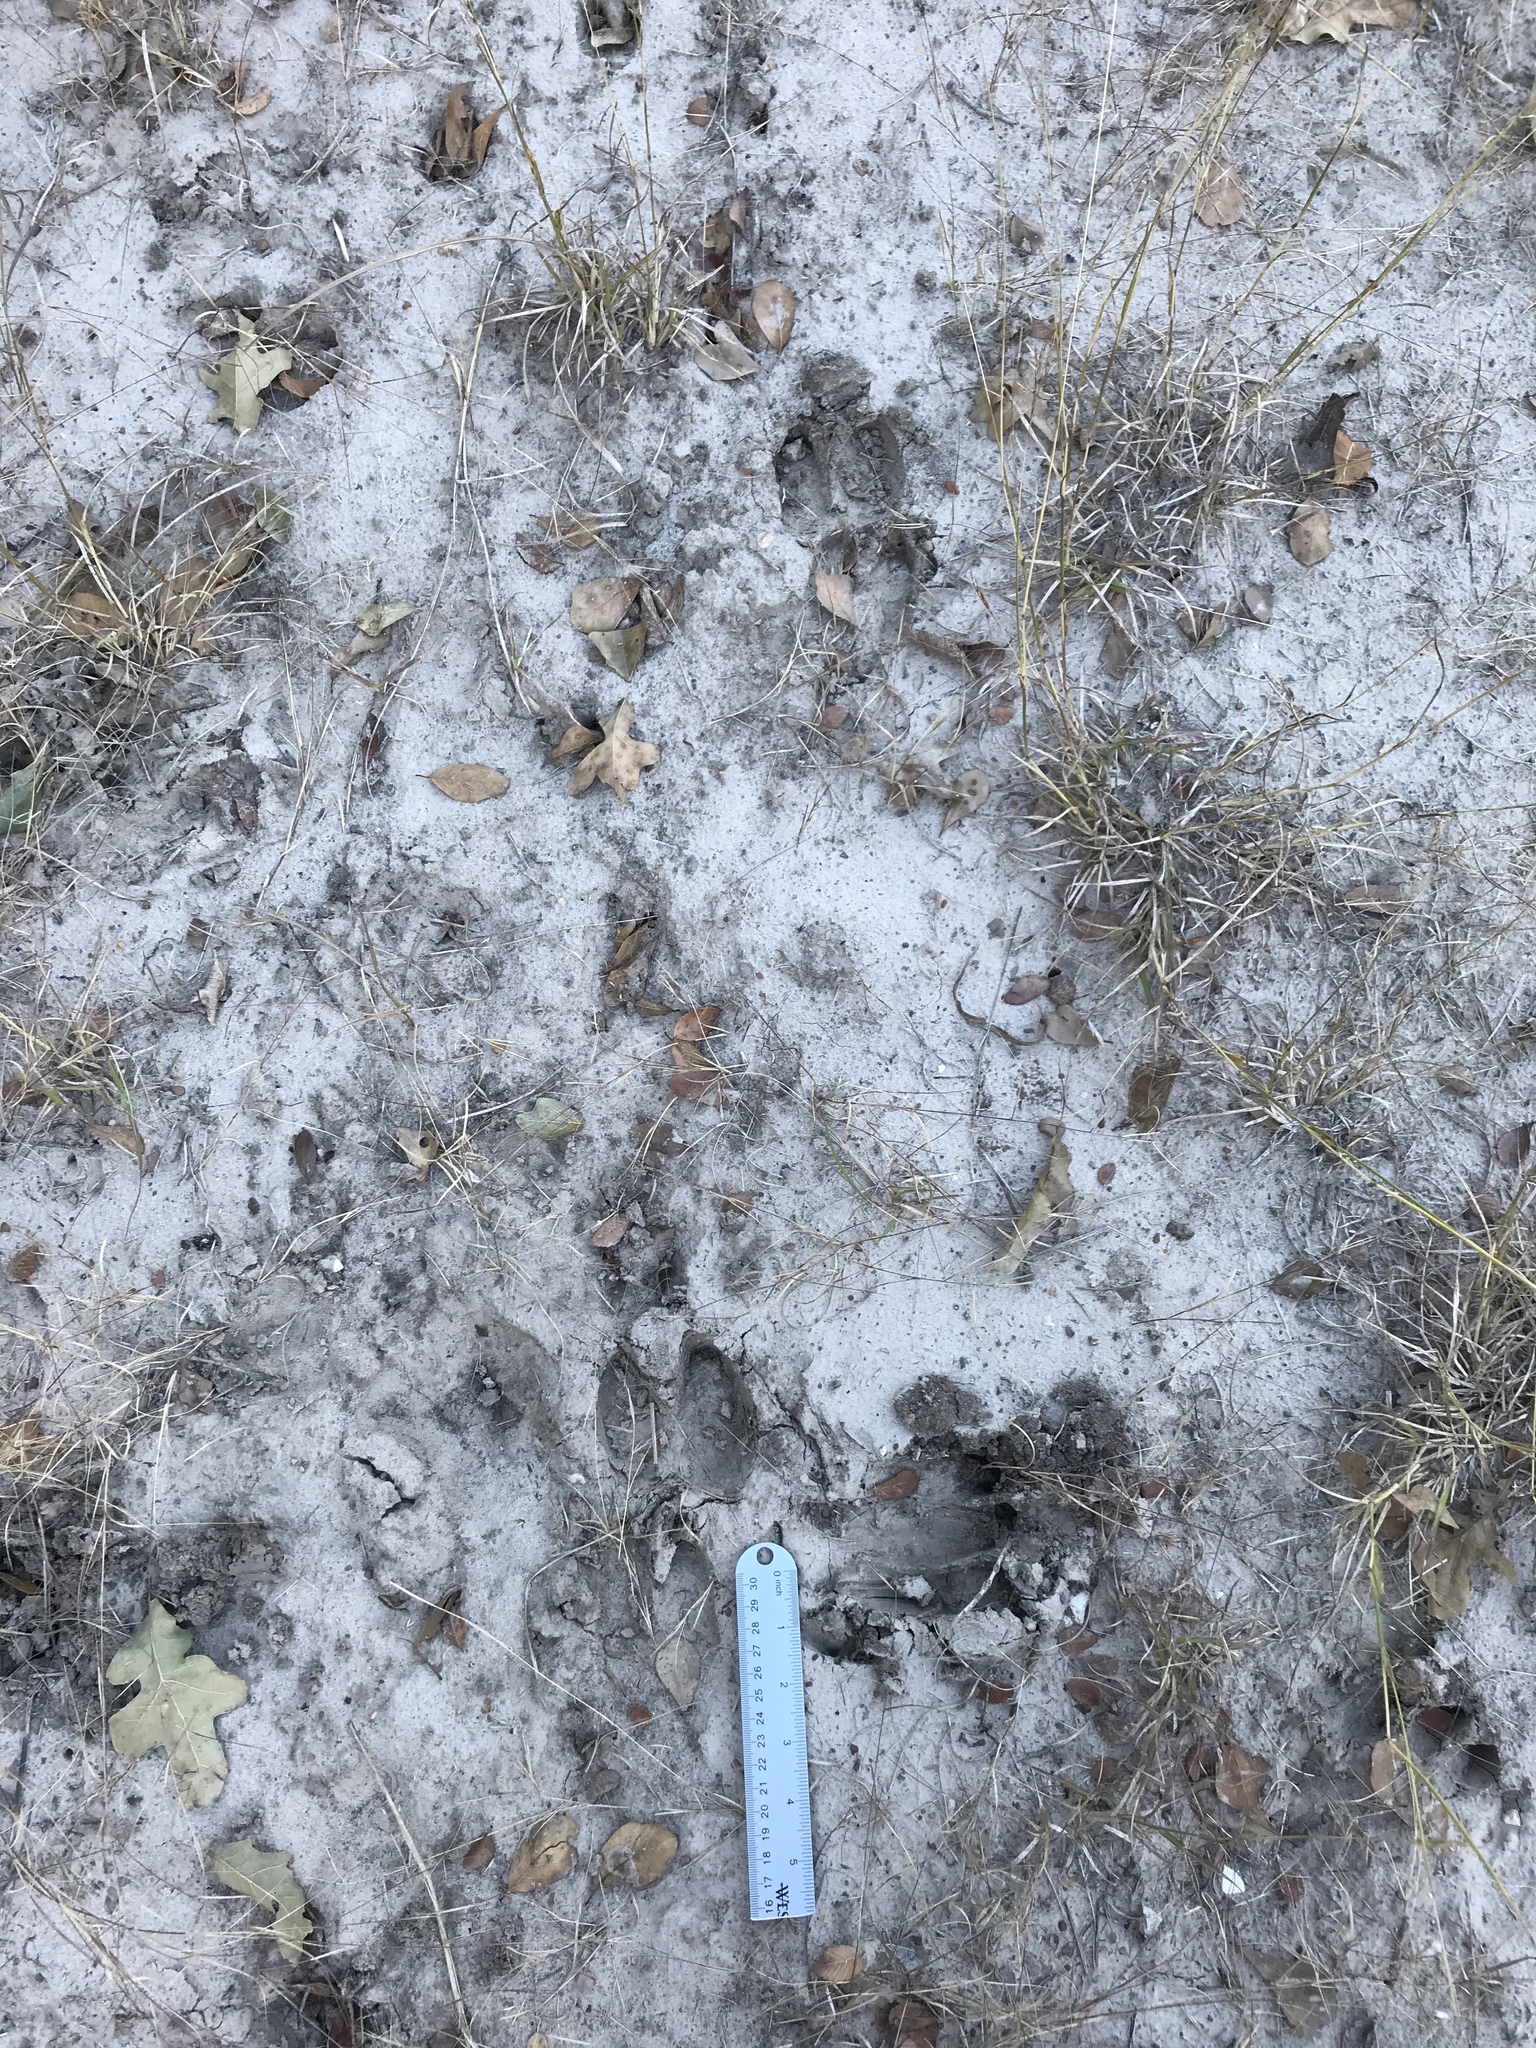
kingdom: Animalia
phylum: Chordata
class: Mammalia
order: Artiodactyla
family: Suidae
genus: Sus
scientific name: Sus scrofa
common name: Wild boar
